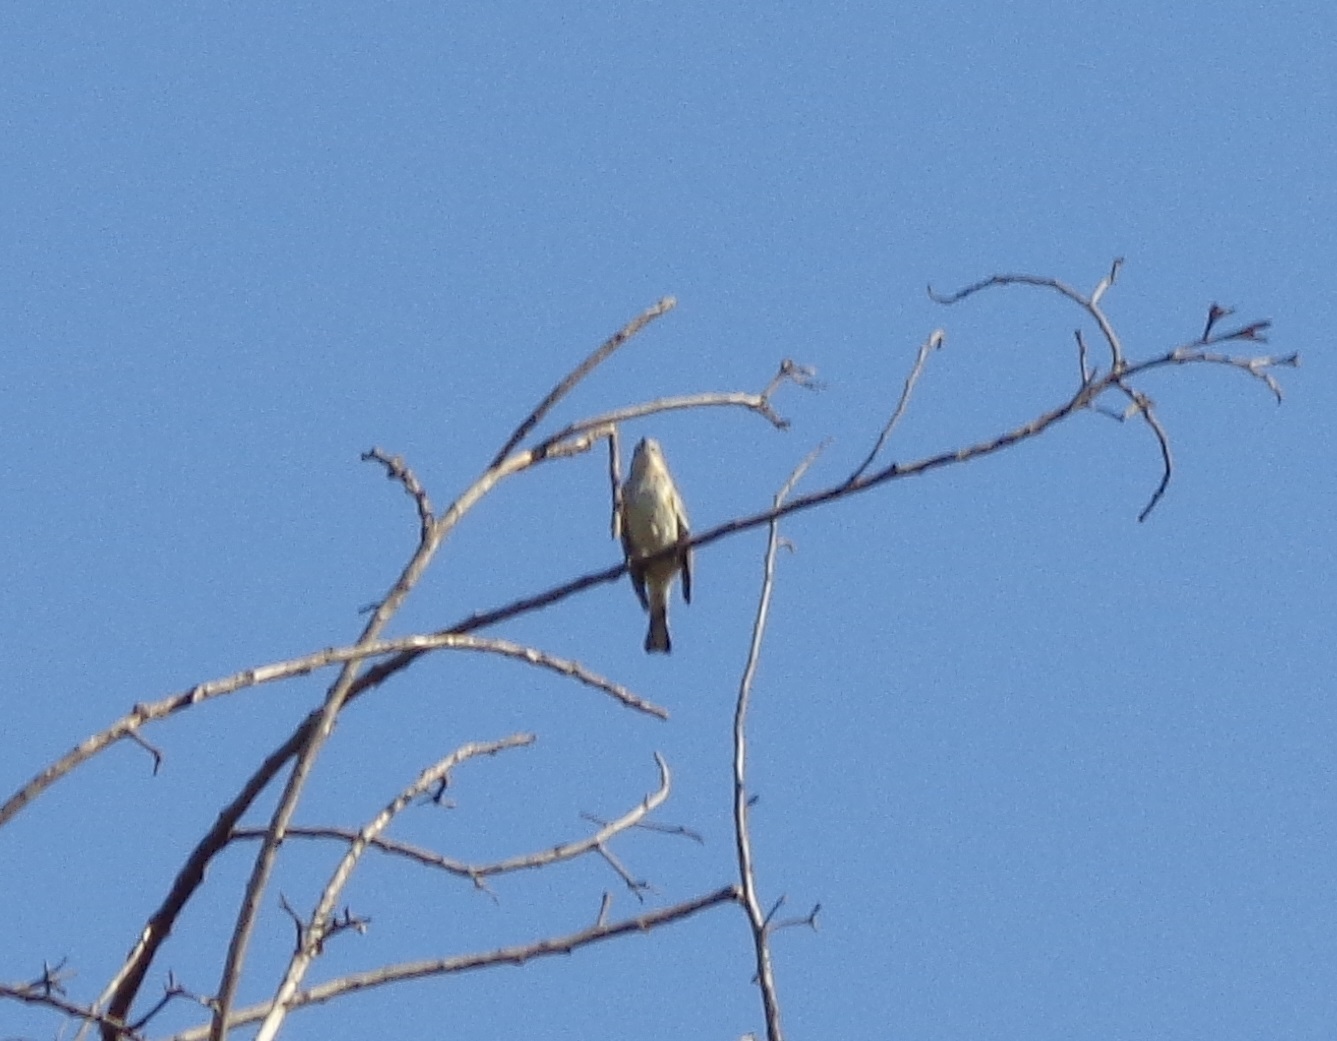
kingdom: Animalia
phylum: Chordata
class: Aves
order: Passeriformes
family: Parulidae
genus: Setophaga
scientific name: Setophaga coronata
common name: Myrtle warbler
